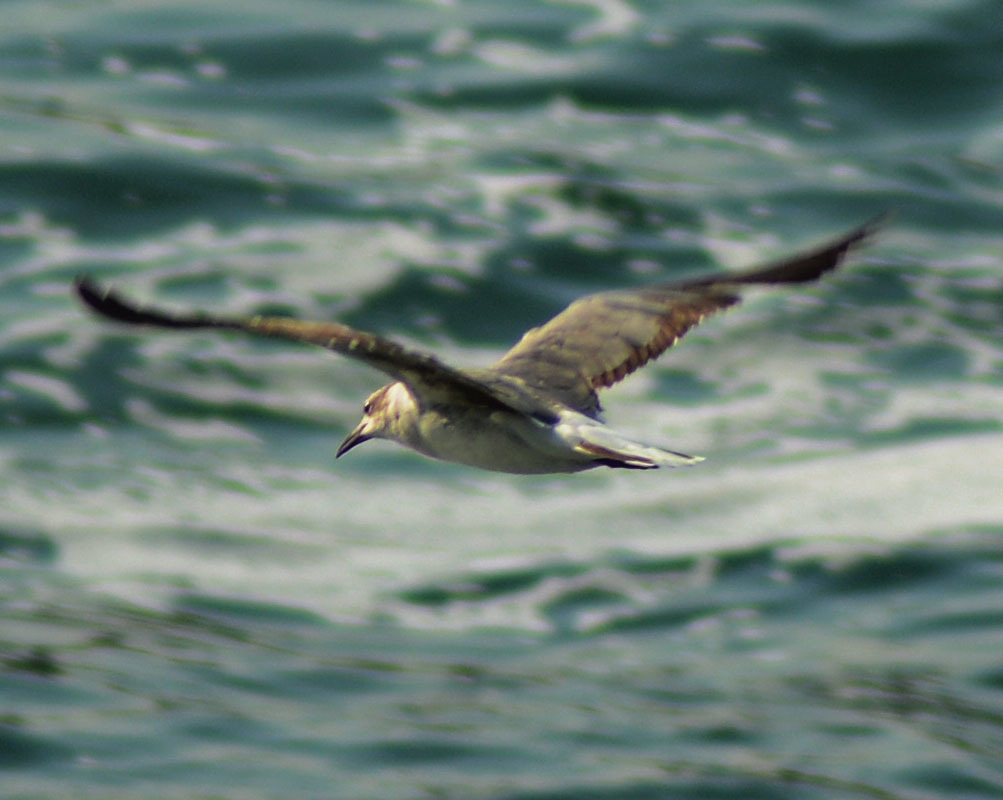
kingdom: Animalia
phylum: Chordata
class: Aves
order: Charadriiformes
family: Laridae
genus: Leucophaeus
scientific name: Leucophaeus atricilla
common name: Laughing gull
